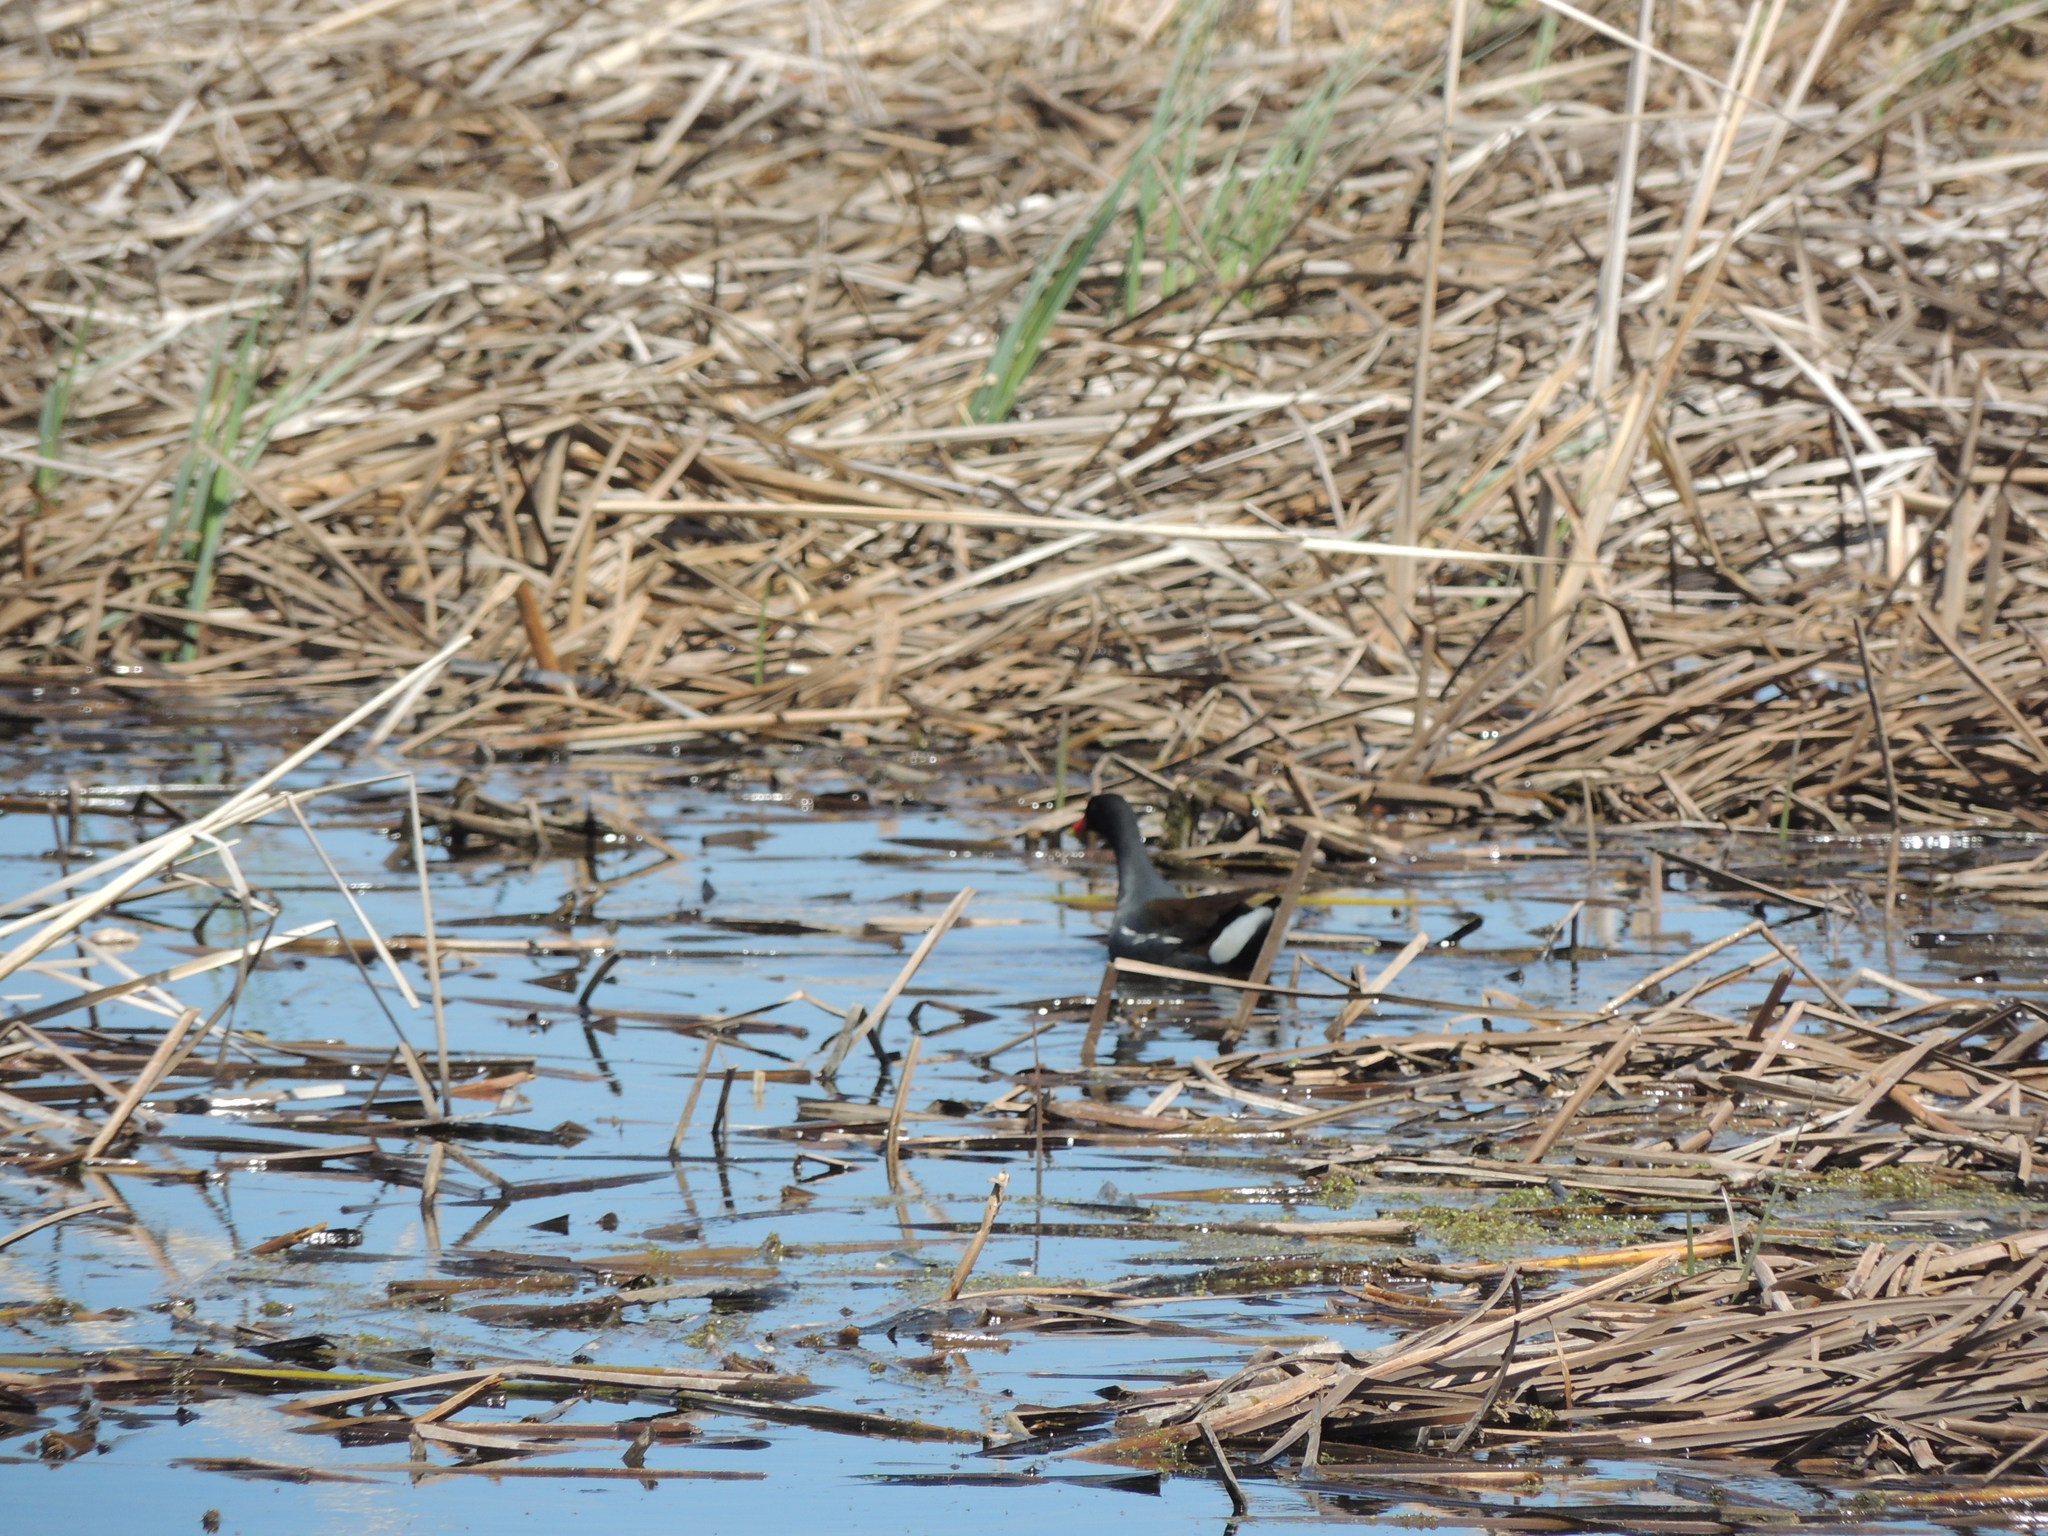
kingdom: Animalia
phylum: Chordata
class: Aves
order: Gruiformes
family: Rallidae
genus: Gallinula
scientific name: Gallinula chloropus
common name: Common moorhen
